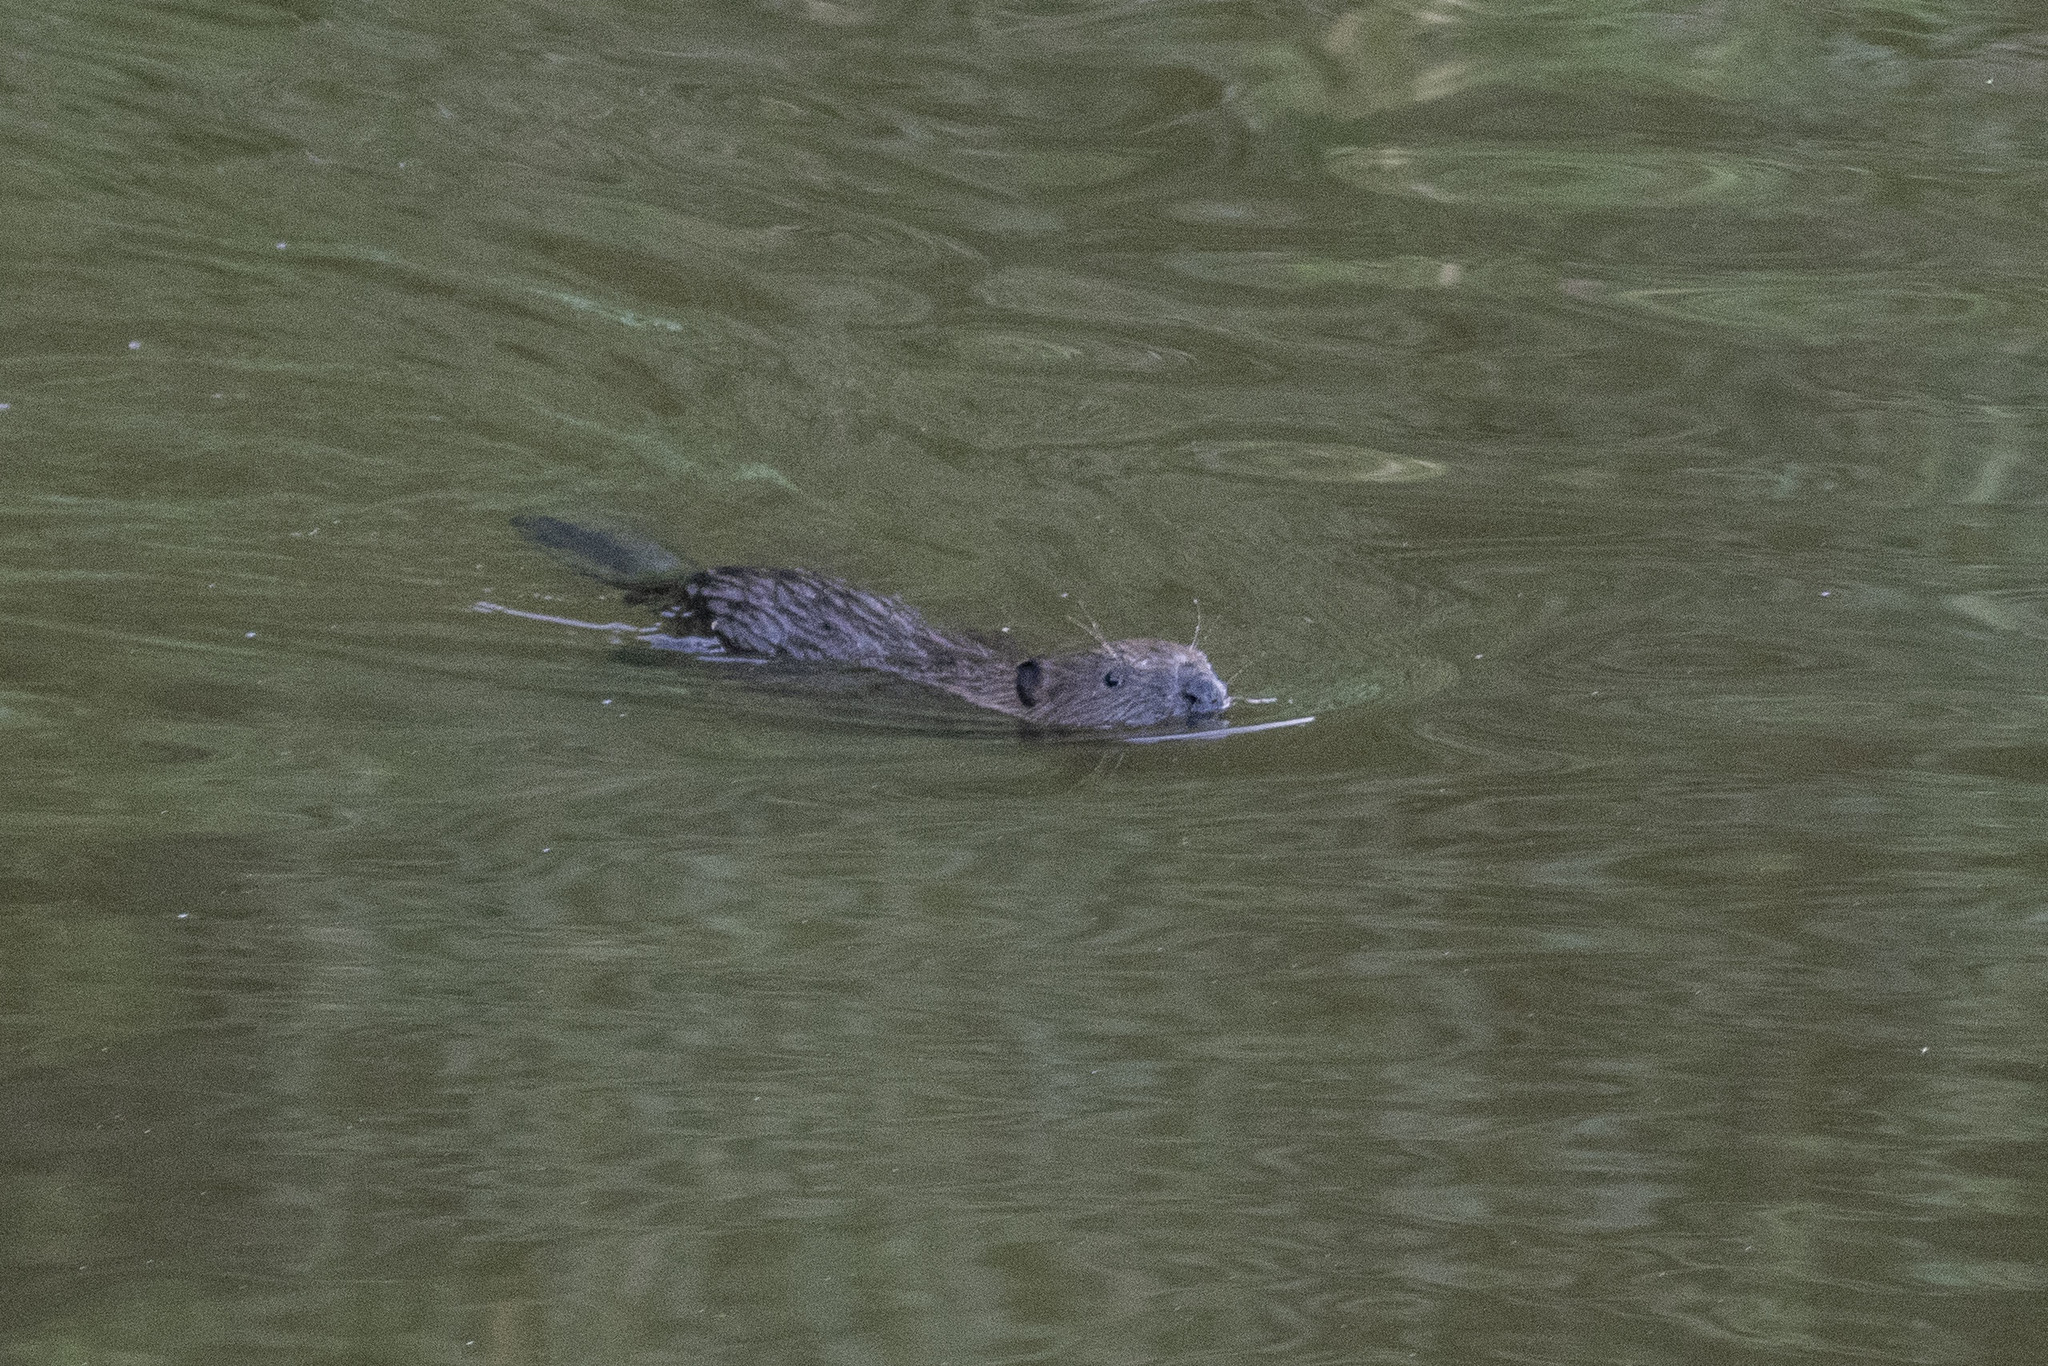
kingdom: Animalia
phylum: Chordata
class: Mammalia
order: Rodentia
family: Castoridae
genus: Castor
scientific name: Castor fiber
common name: Eurasian beaver
